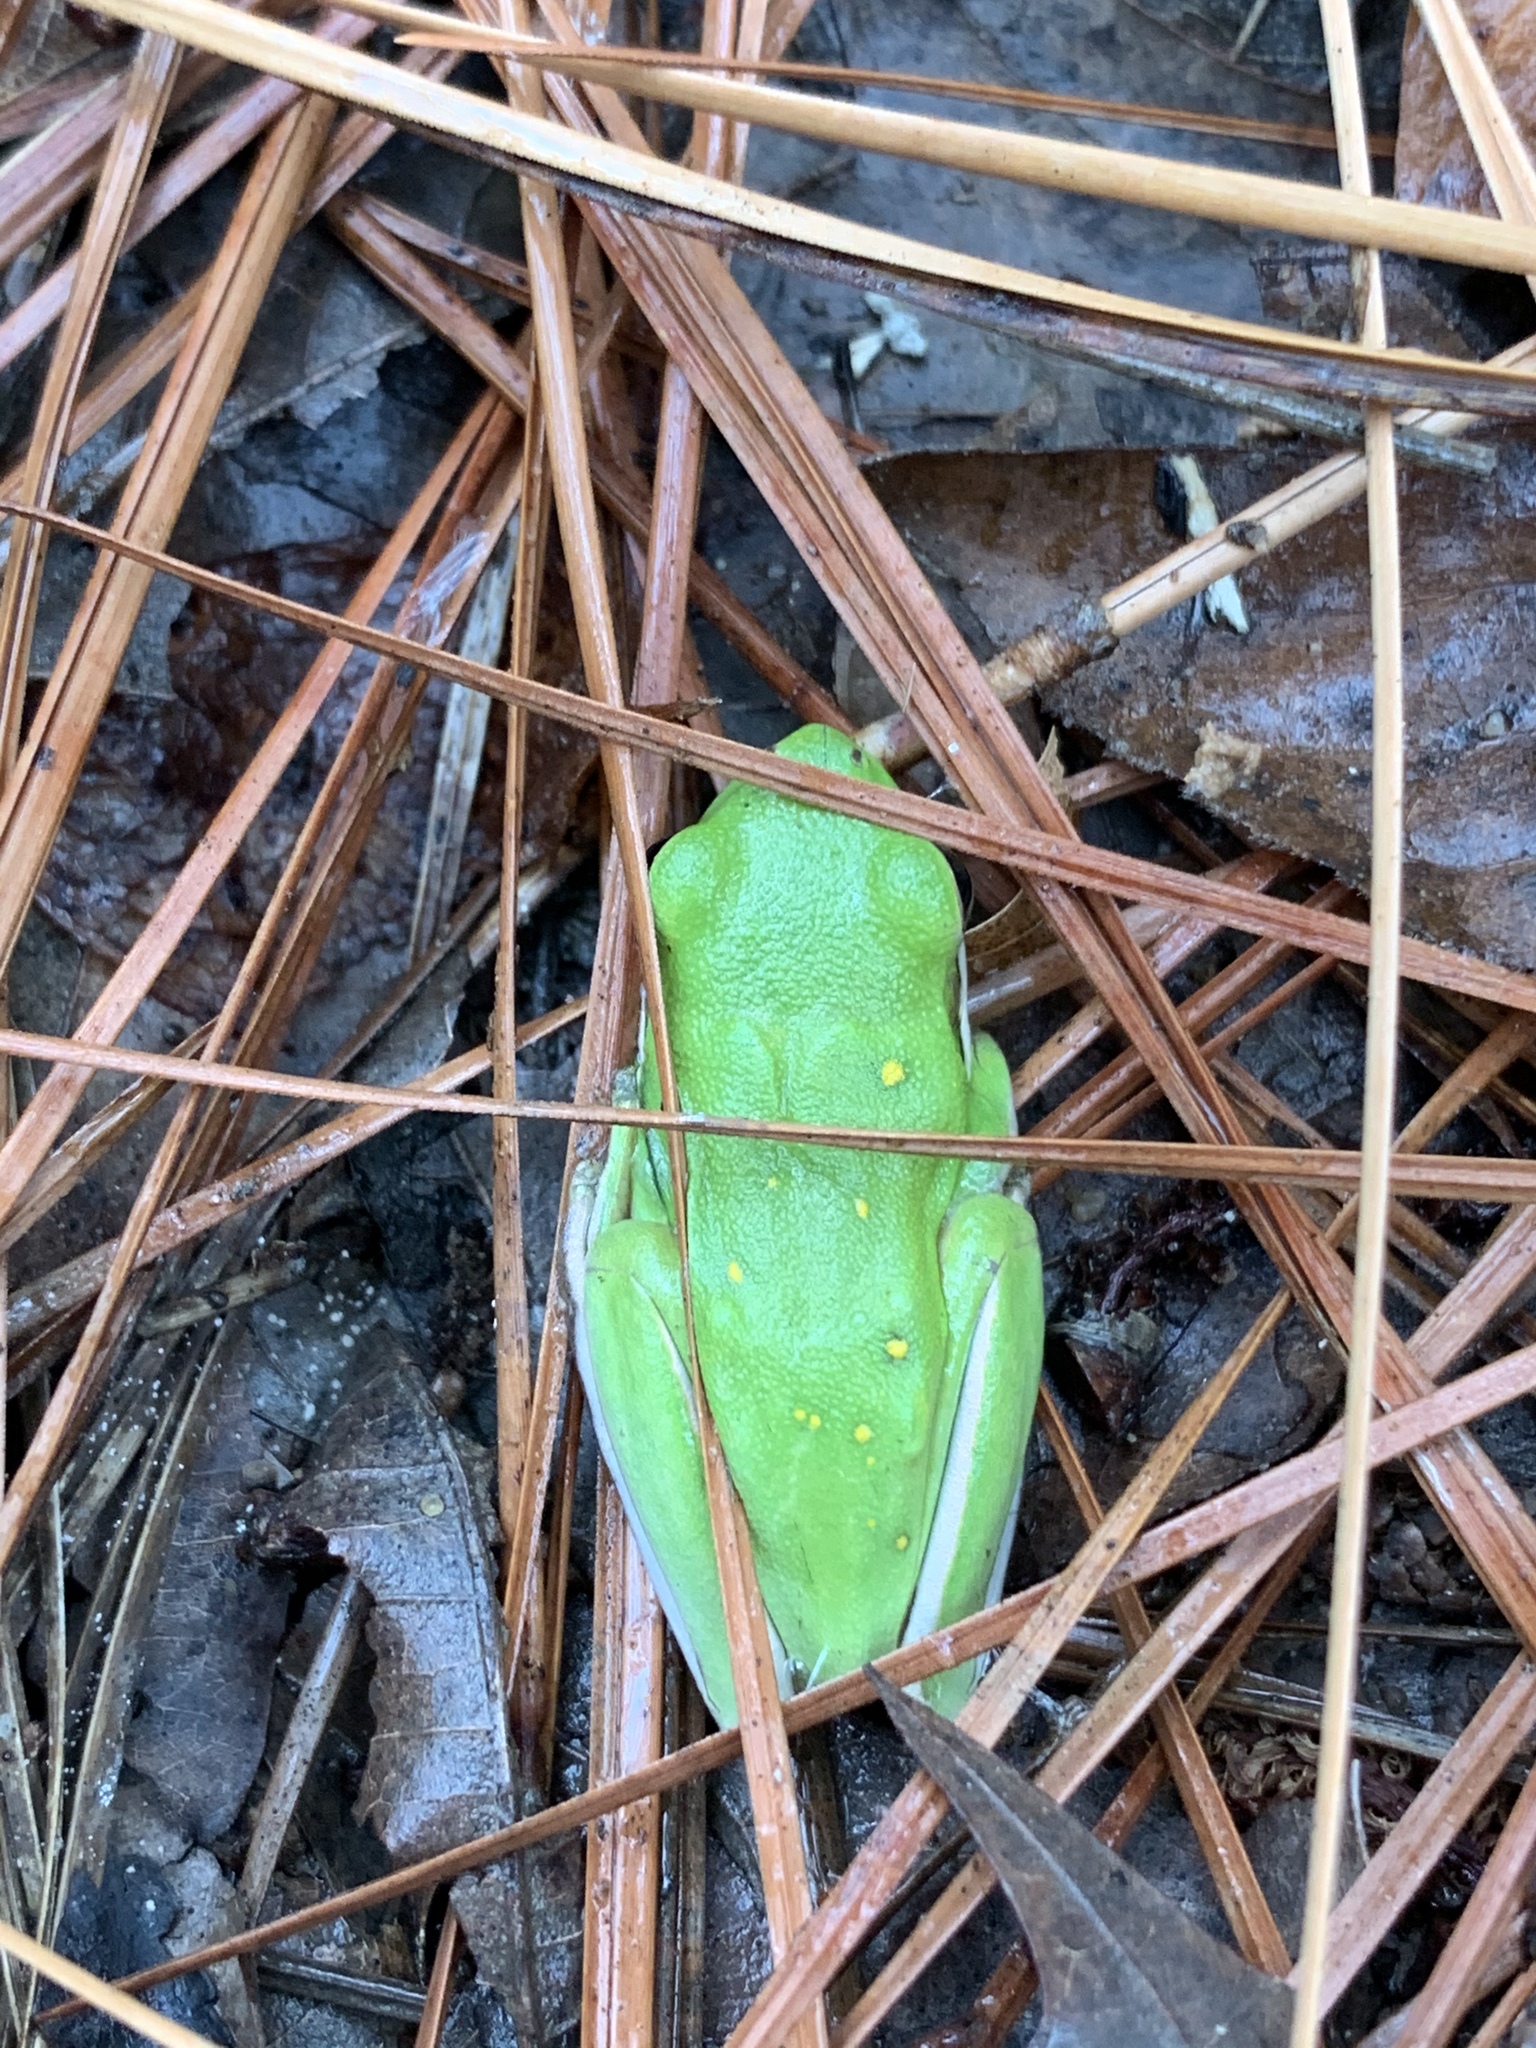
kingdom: Animalia
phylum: Chordata
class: Amphibia
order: Anura
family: Hylidae
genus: Dryophytes
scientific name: Dryophytes cinereus
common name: Green treefrog
